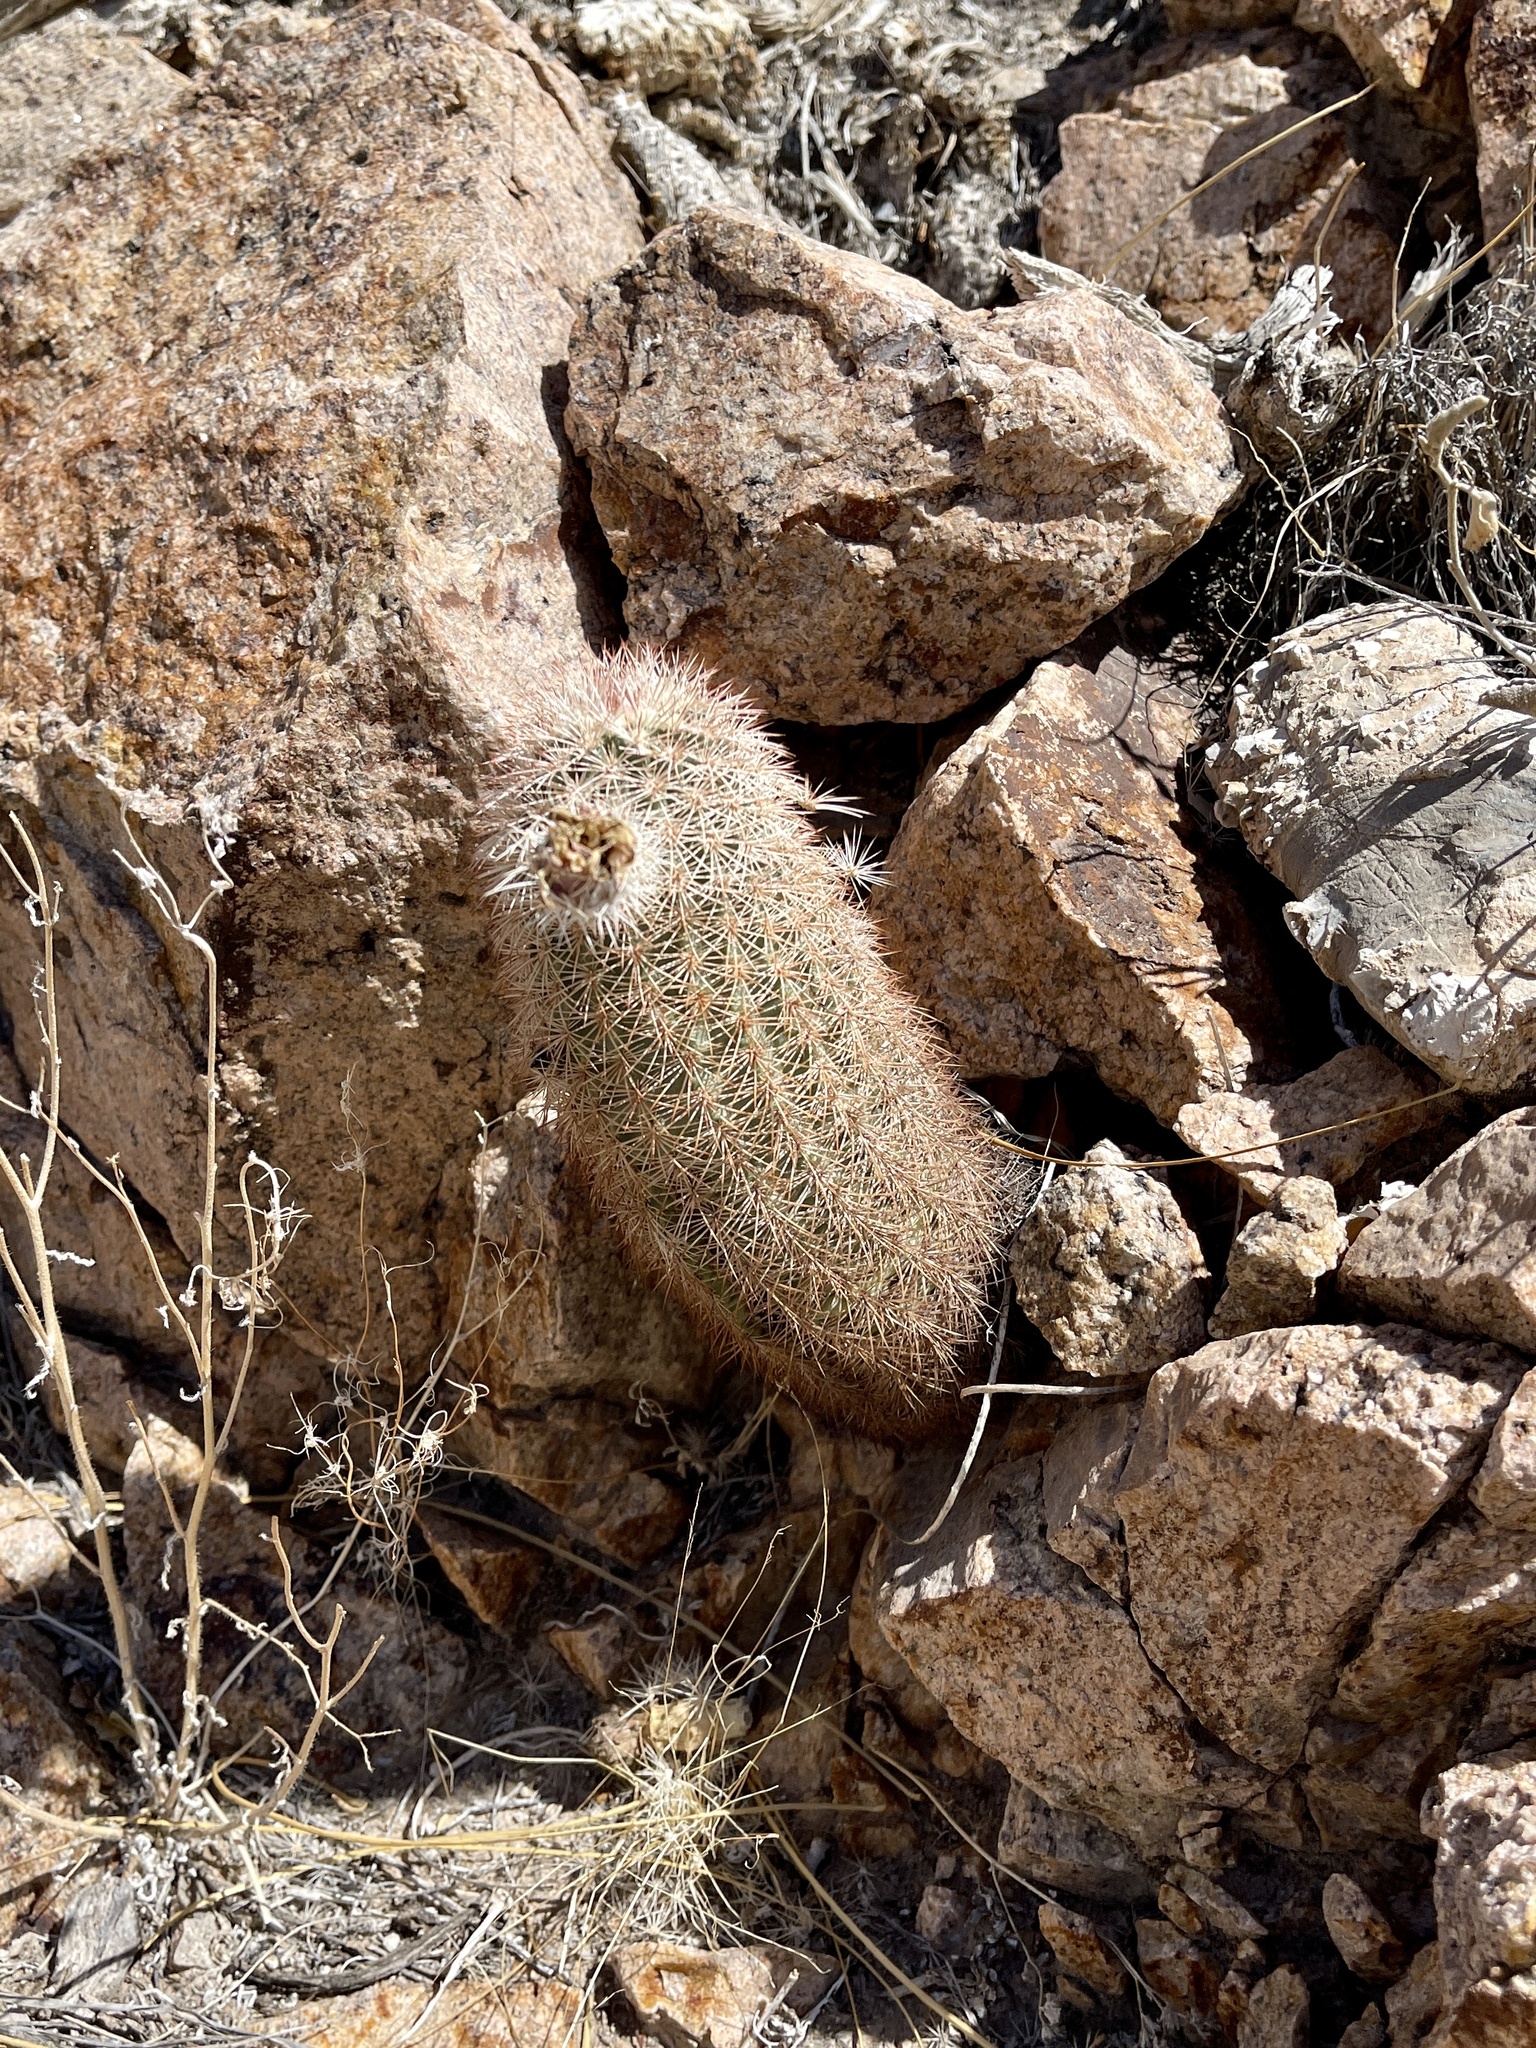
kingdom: Plantae
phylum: Tracheophyta
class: Magnoliopsida
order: Caryophyllales
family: Cactaceae
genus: Echinocereus
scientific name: Echinocereus dasyacanthus
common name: Spiny hedgehog cactus
